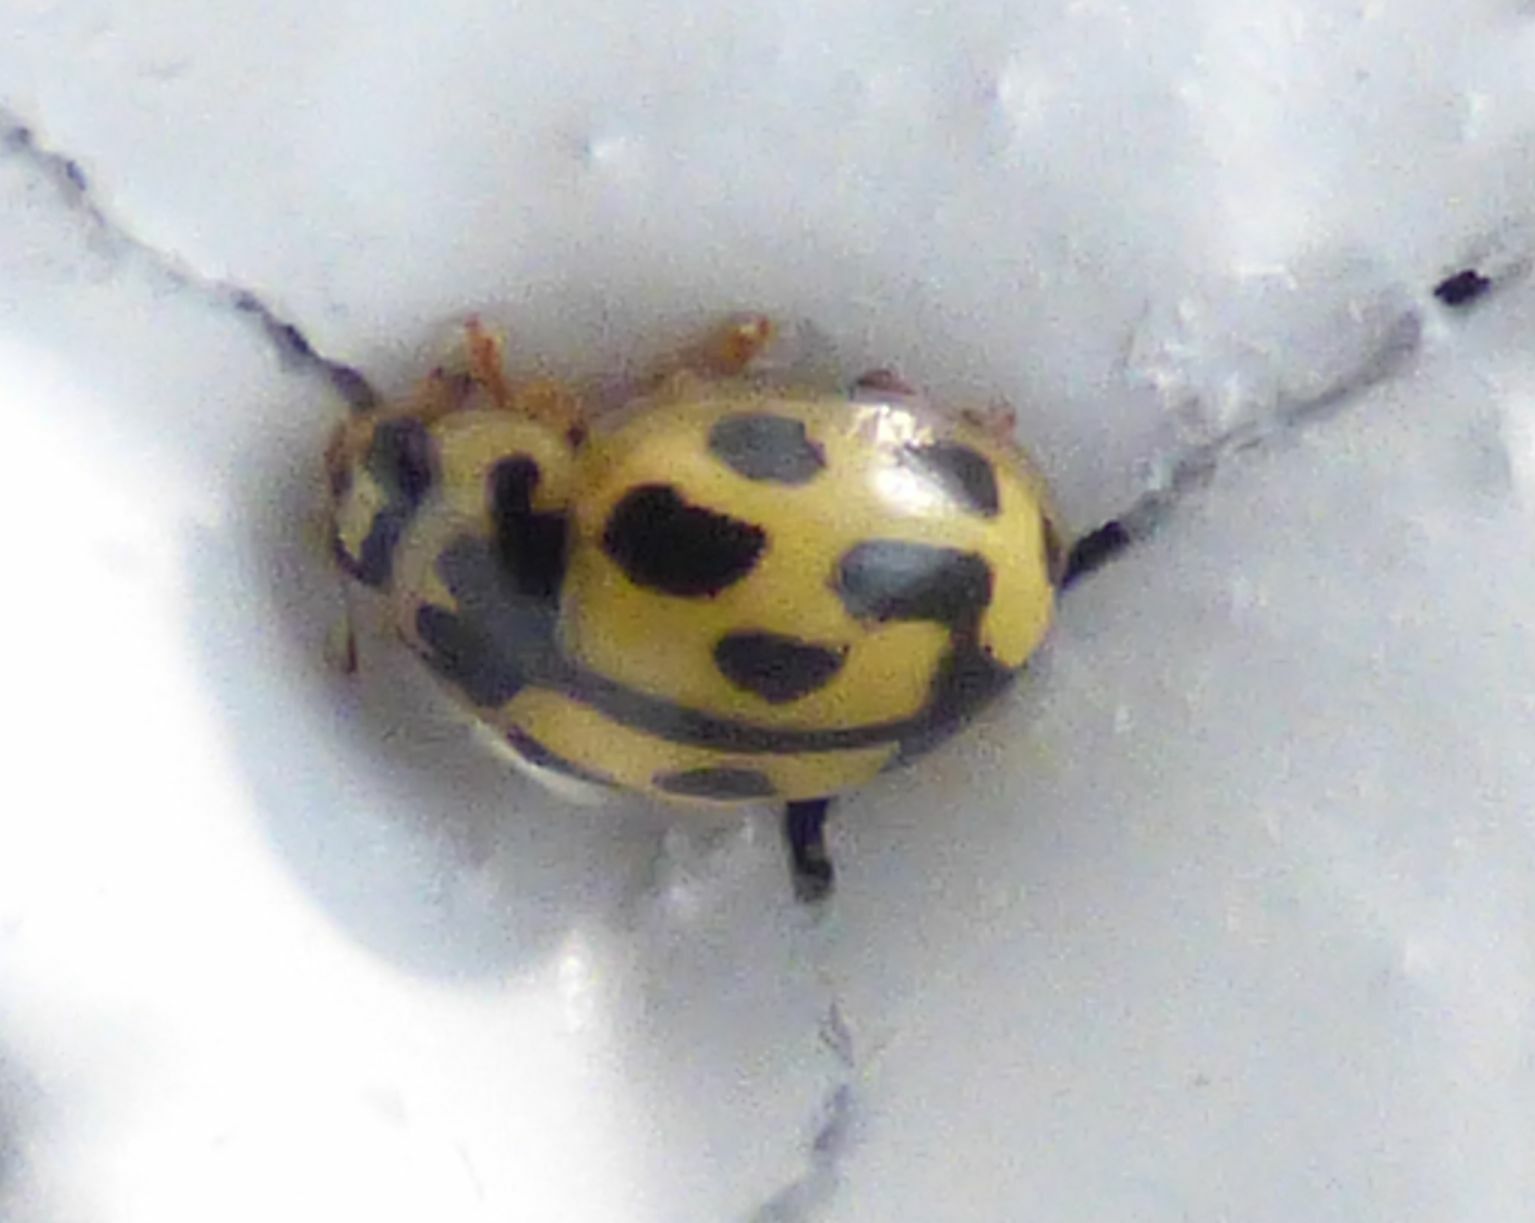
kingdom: Animalia
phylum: Arthropoda
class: Insecta
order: Coleoptera
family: Coccinellidae
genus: Propylaea
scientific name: Propylaea quatuordecimpunctata
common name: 14-spotted ladybird beetle
